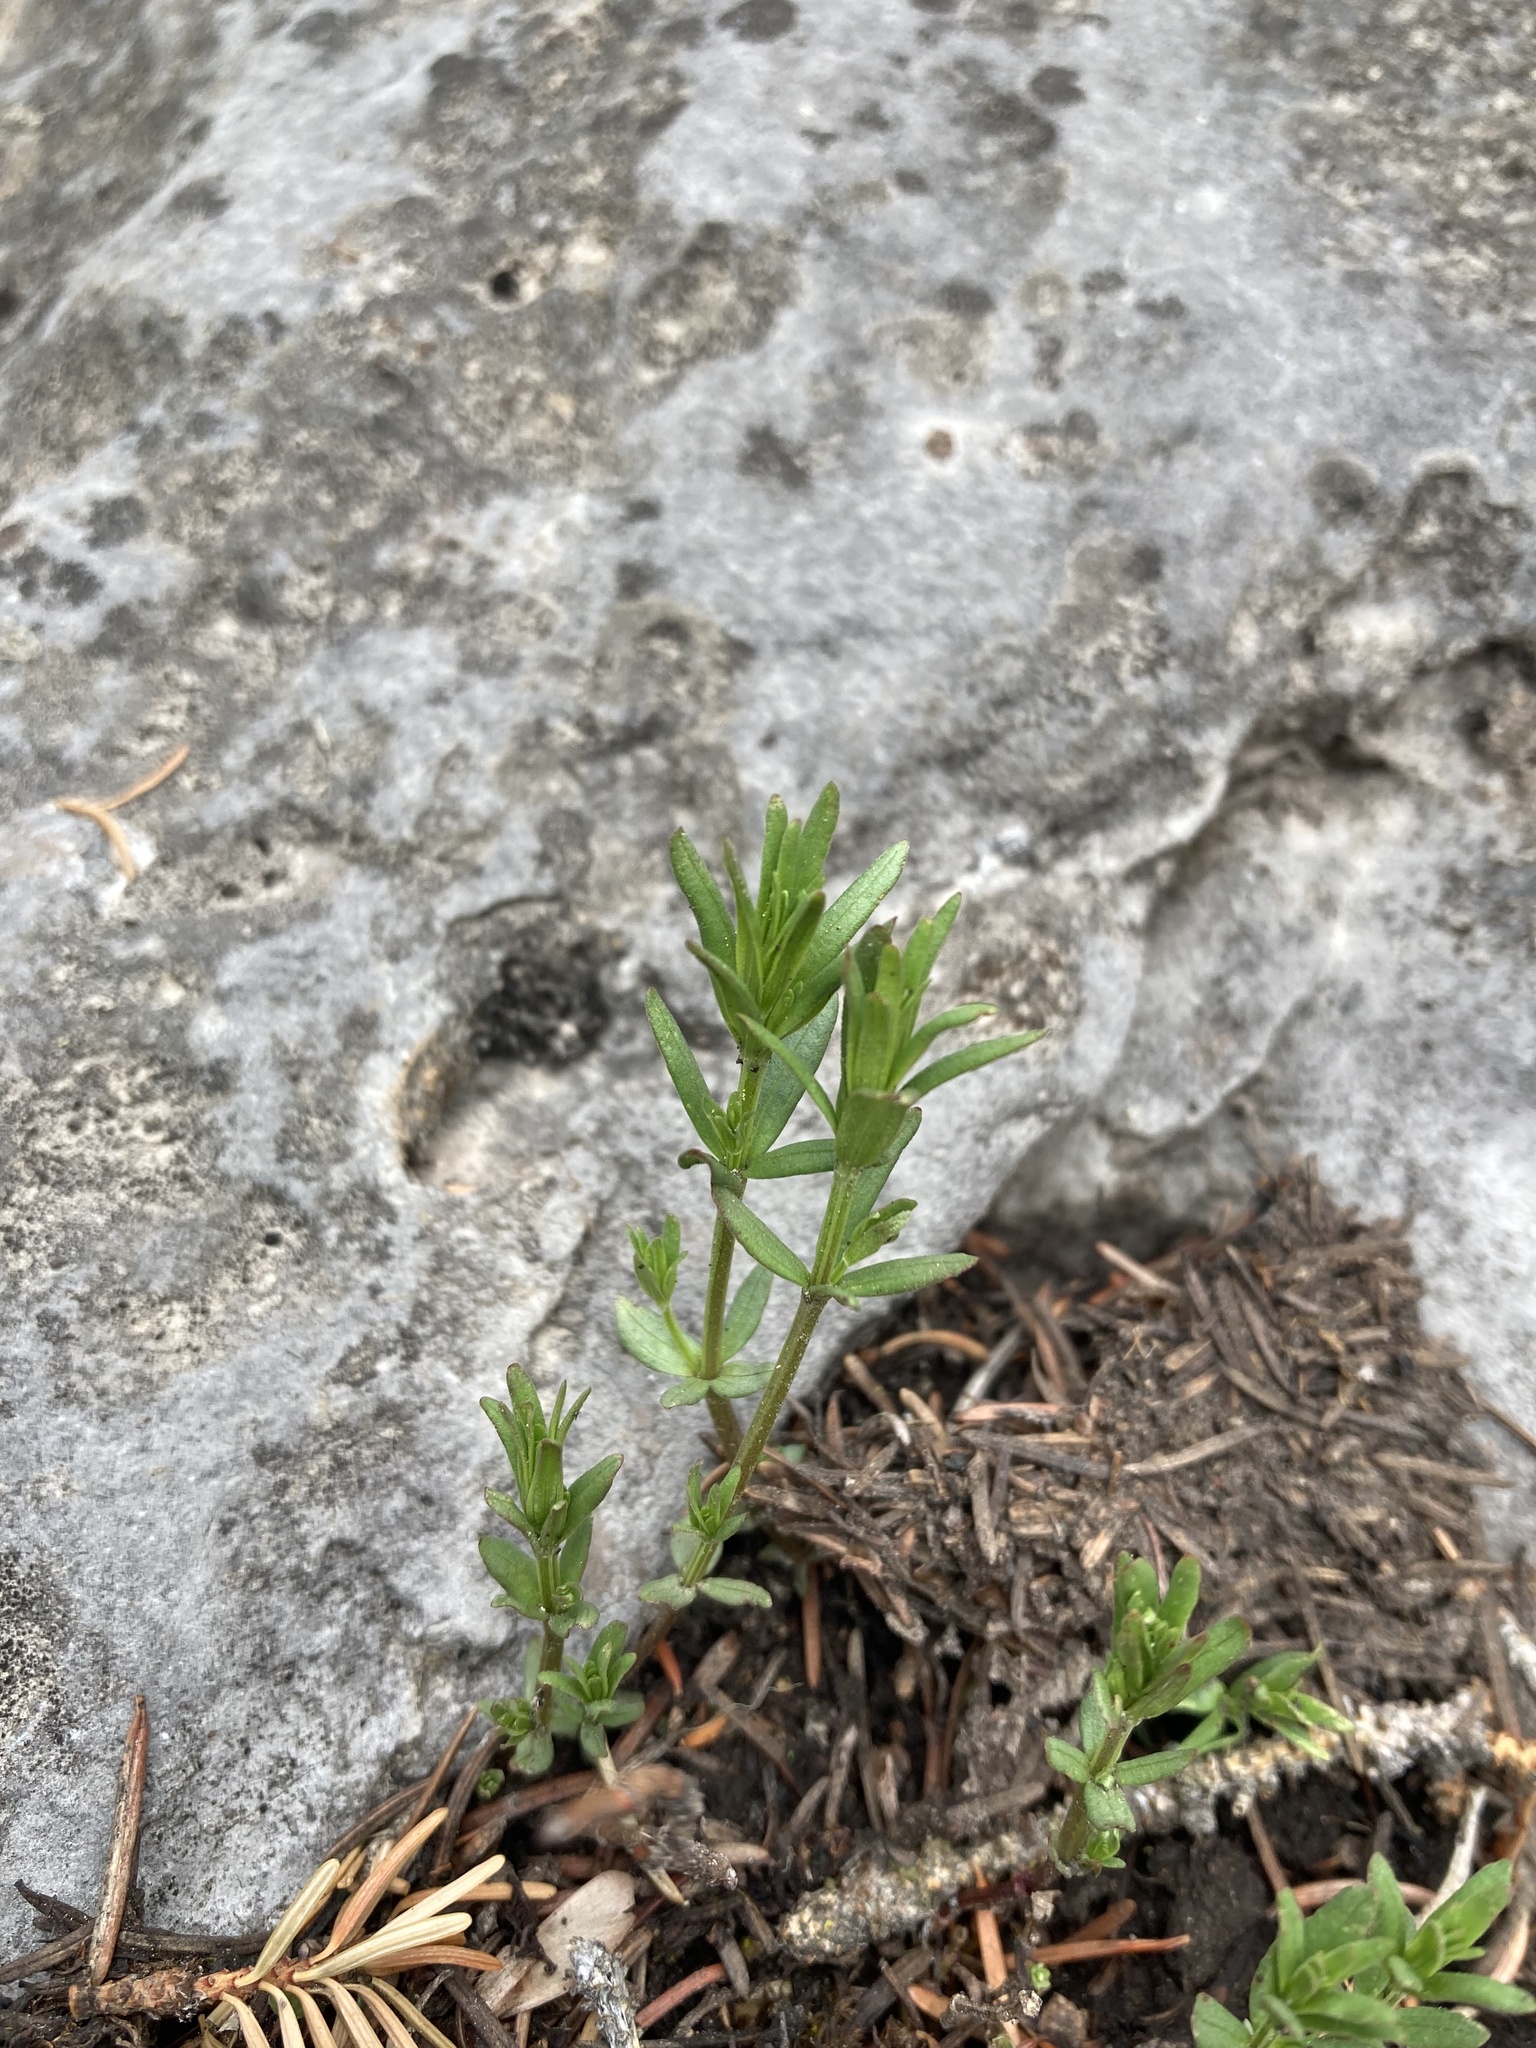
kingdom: Plantae
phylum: Tracheophyta
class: Magnoliopsida
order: Gentianales
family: Rubiaceae
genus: Galium
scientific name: Galium boreale
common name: Northern bedstraw
